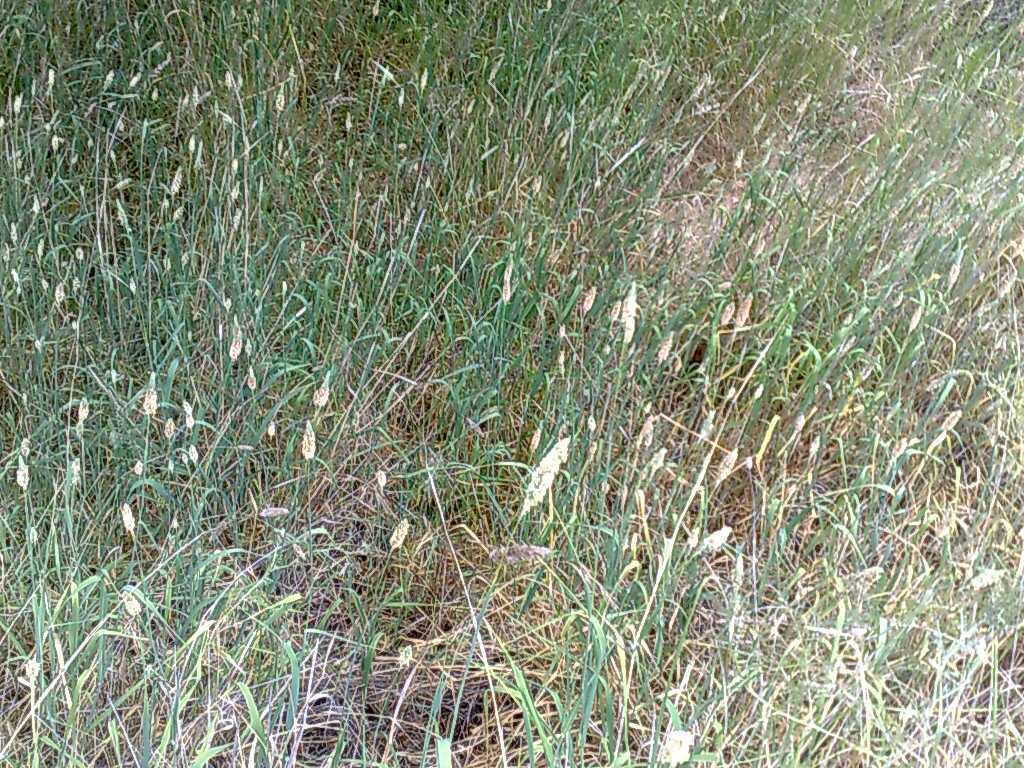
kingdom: Plantae
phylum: Tracheophyta
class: Liliopsida
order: Poales
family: Poaceae
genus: Phalaris
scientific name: Phalaris aquatica
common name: Bulbous canary-grass
